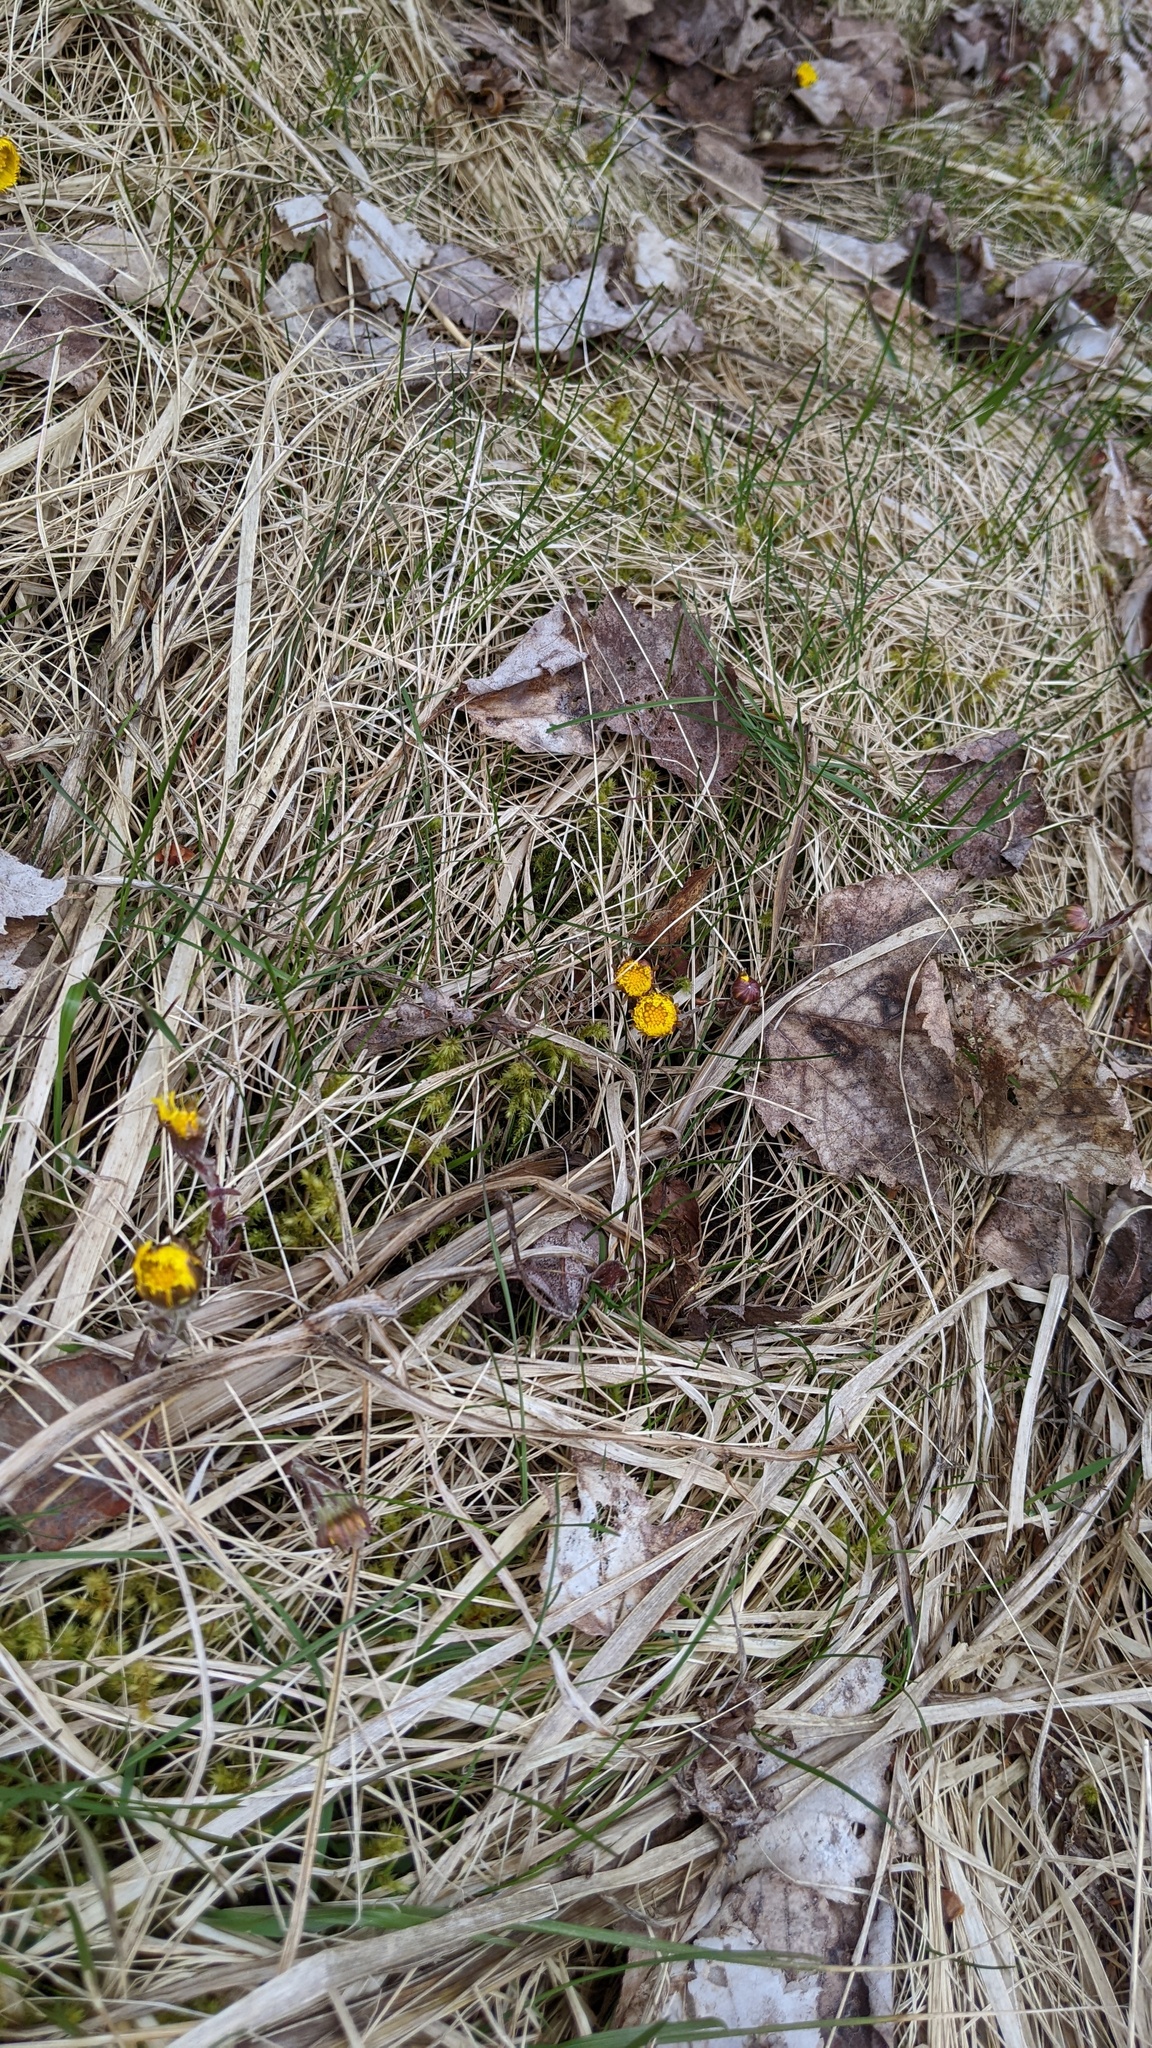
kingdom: Plantae
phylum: Tracheophyta
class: Magnoliopsida
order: Asterales
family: Asteraceae
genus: Tussilago
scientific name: Tussilago farfara
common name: Coltsfoot
